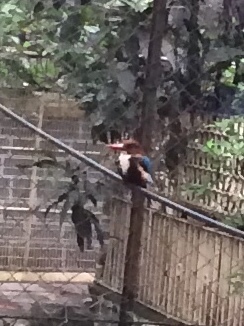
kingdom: Animalia
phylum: Chordata
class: Aves
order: Coraciiformes
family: Alcedinidae
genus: Halcyon
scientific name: Halcyon smyrnensis
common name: White-throated kingfisher
